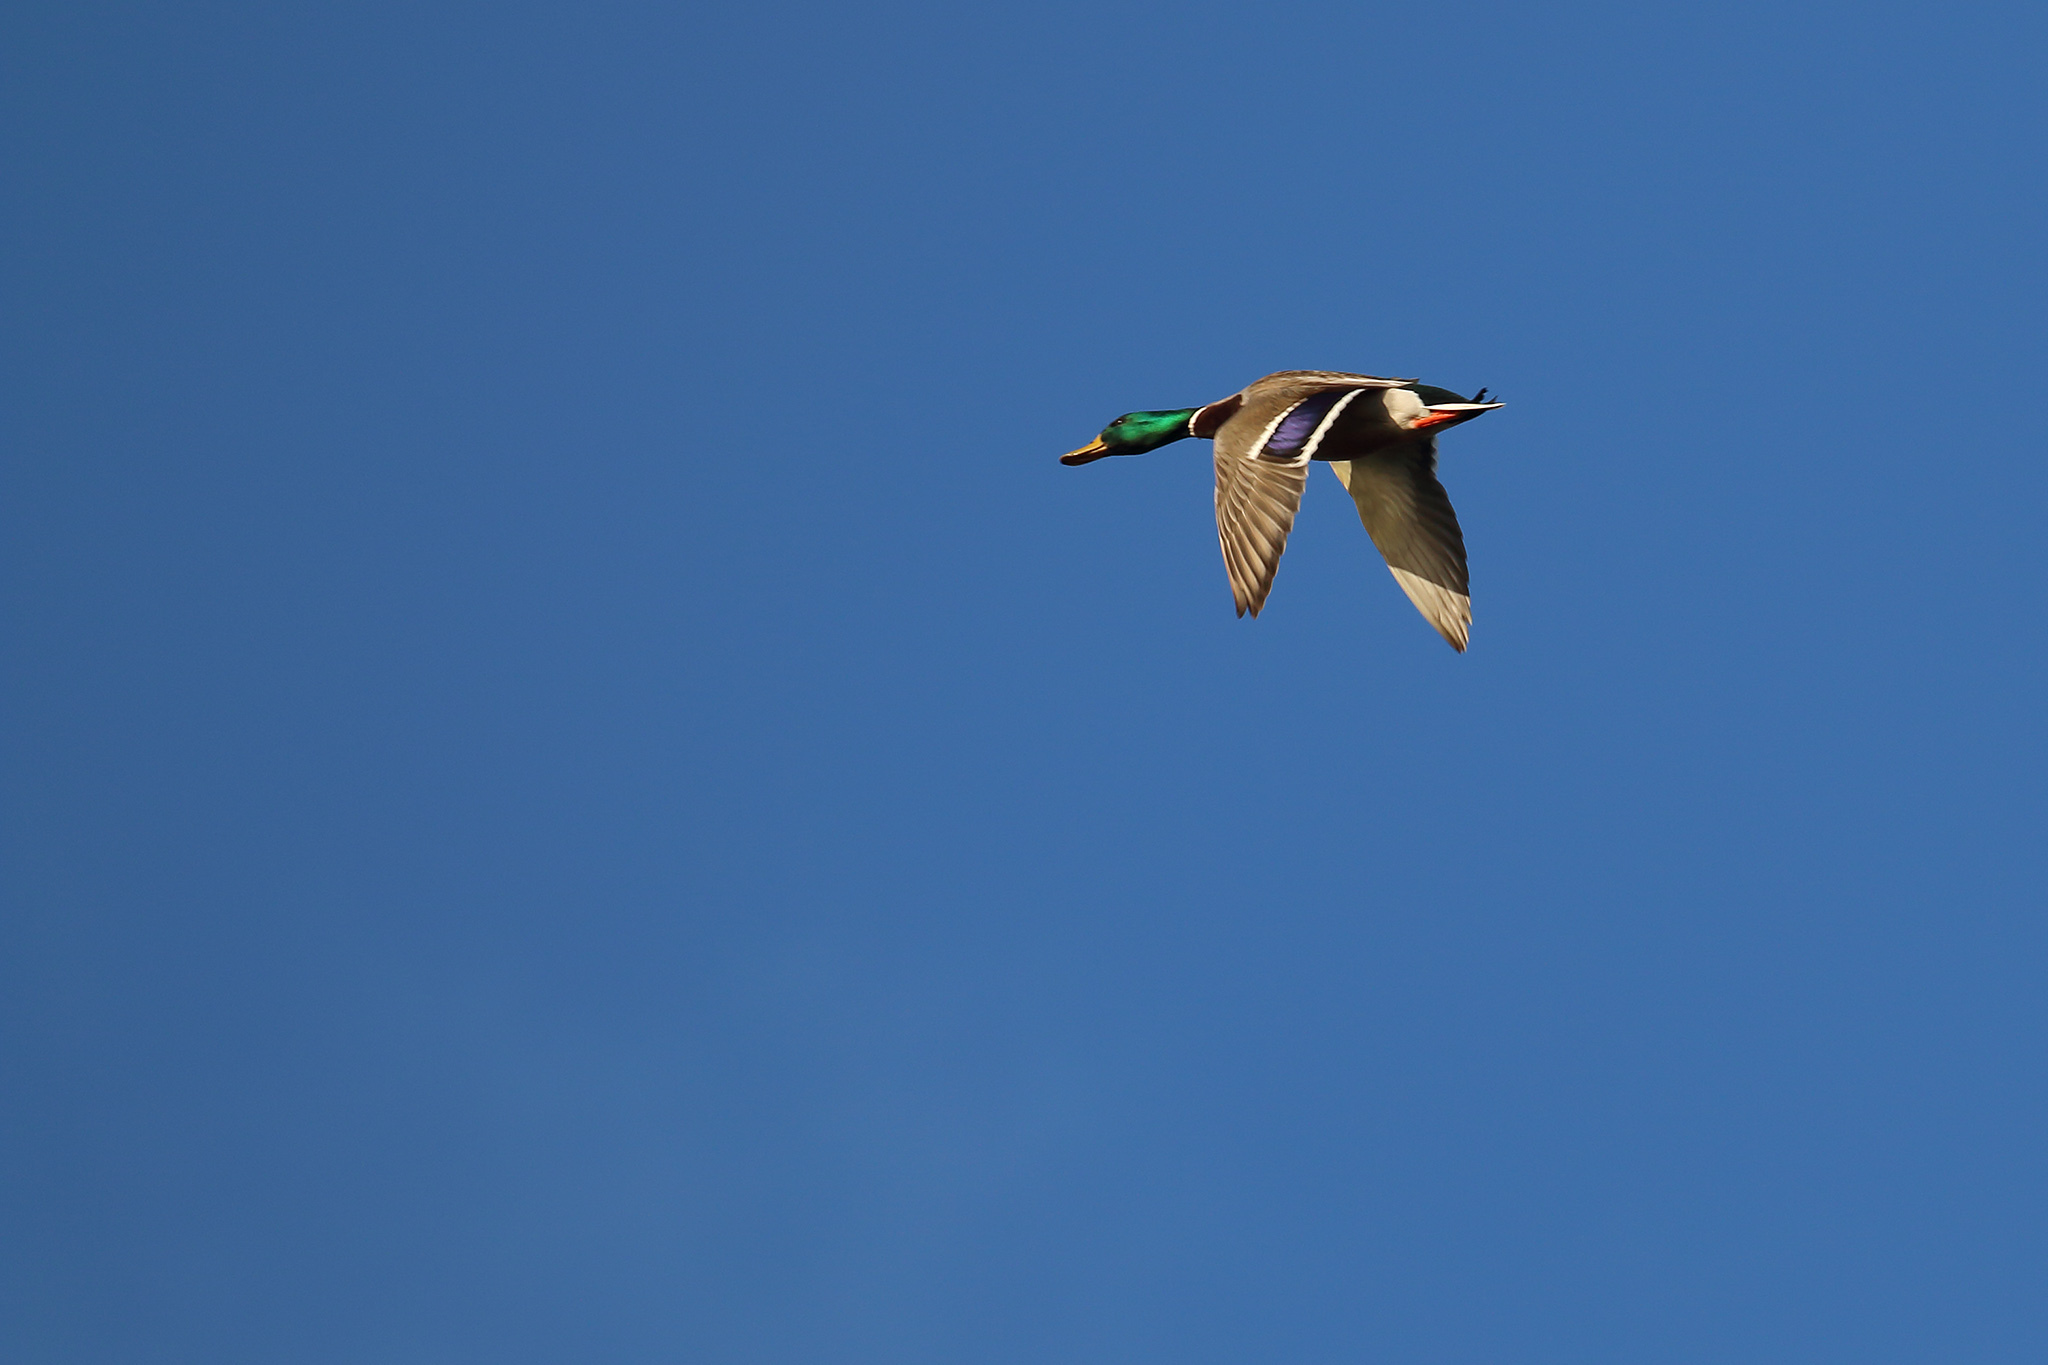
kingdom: Animalia
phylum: Chordata
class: Aves
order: Anseriformes
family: Anatidae
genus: Anas
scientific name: Anas platyrhynchos
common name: Mallard
